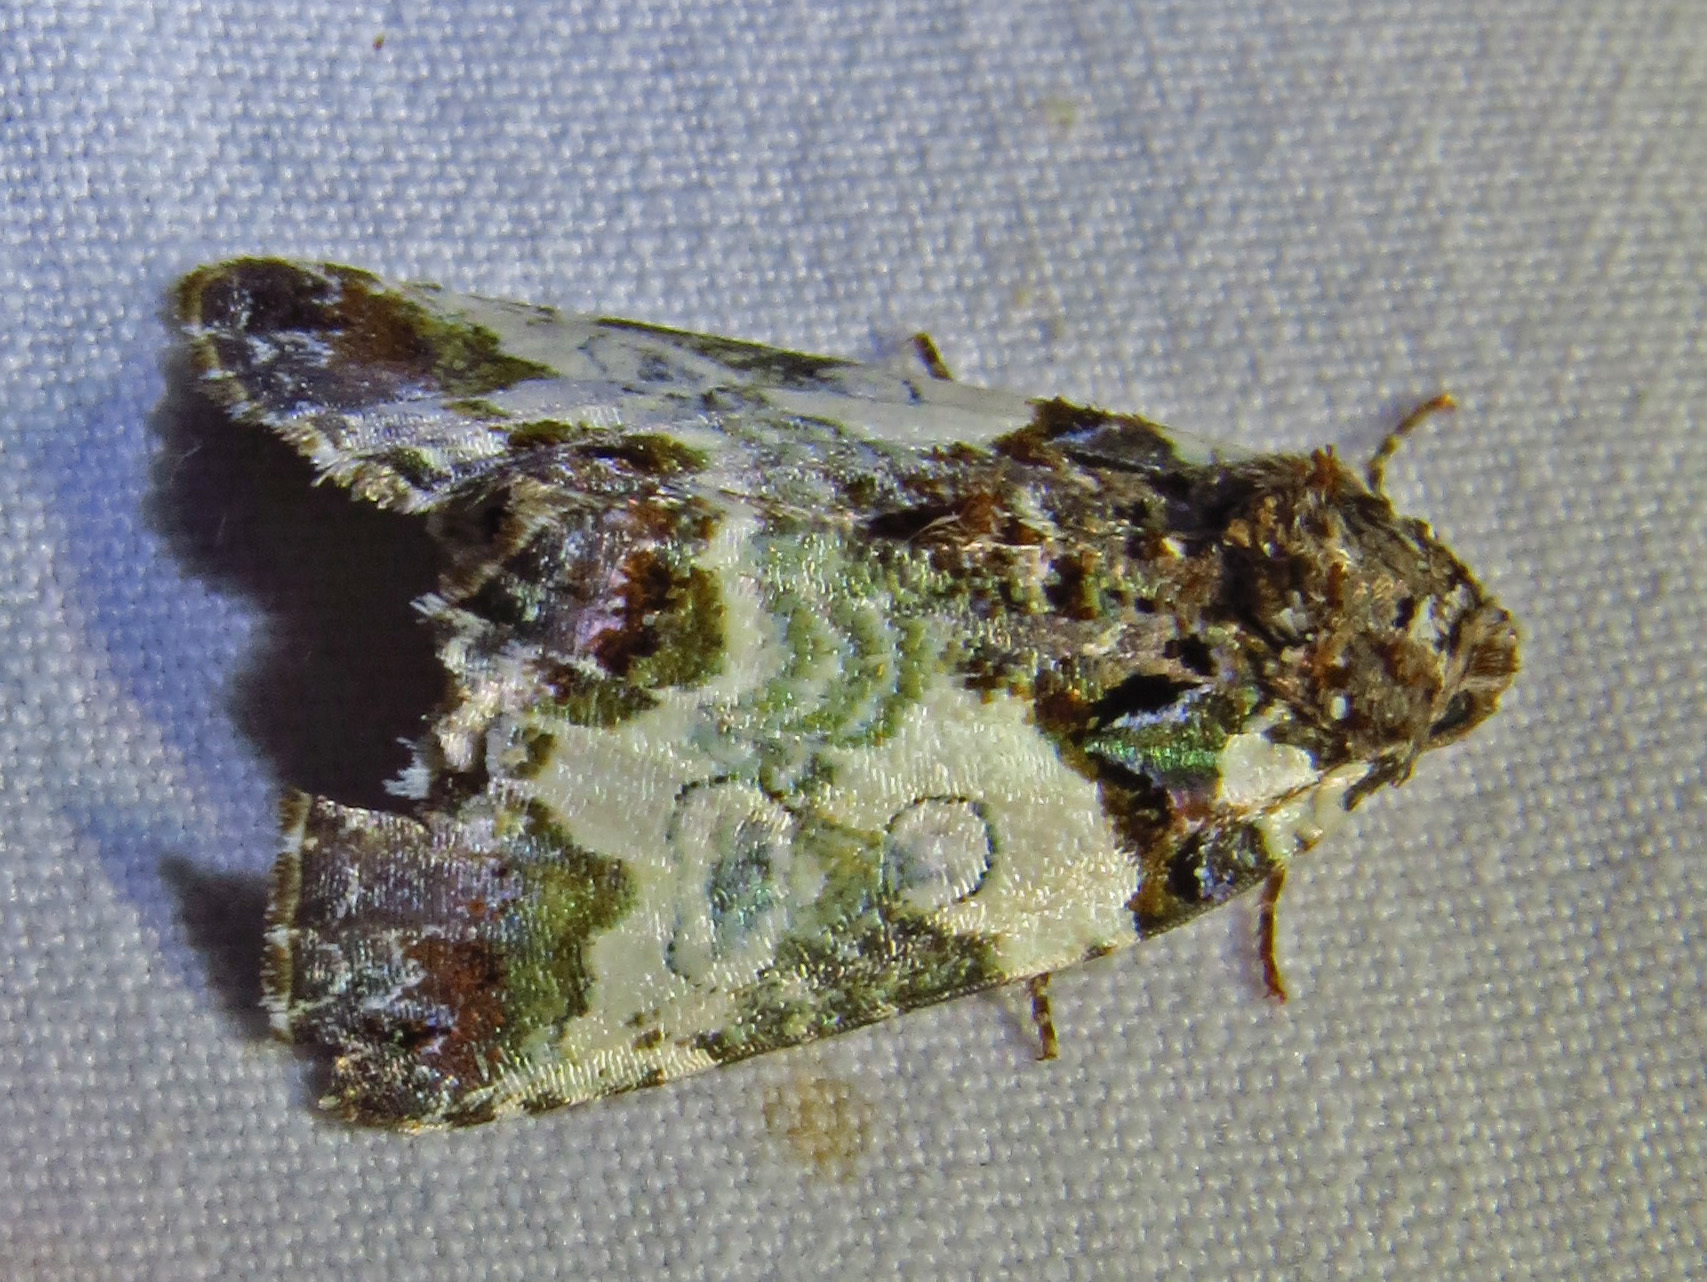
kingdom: Animalia
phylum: Arthropoda
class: Insecta
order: Lepidoptera
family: Noctuidae
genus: Cerma
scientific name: Cerma cerintha
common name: Tufted bird-dropping moth
